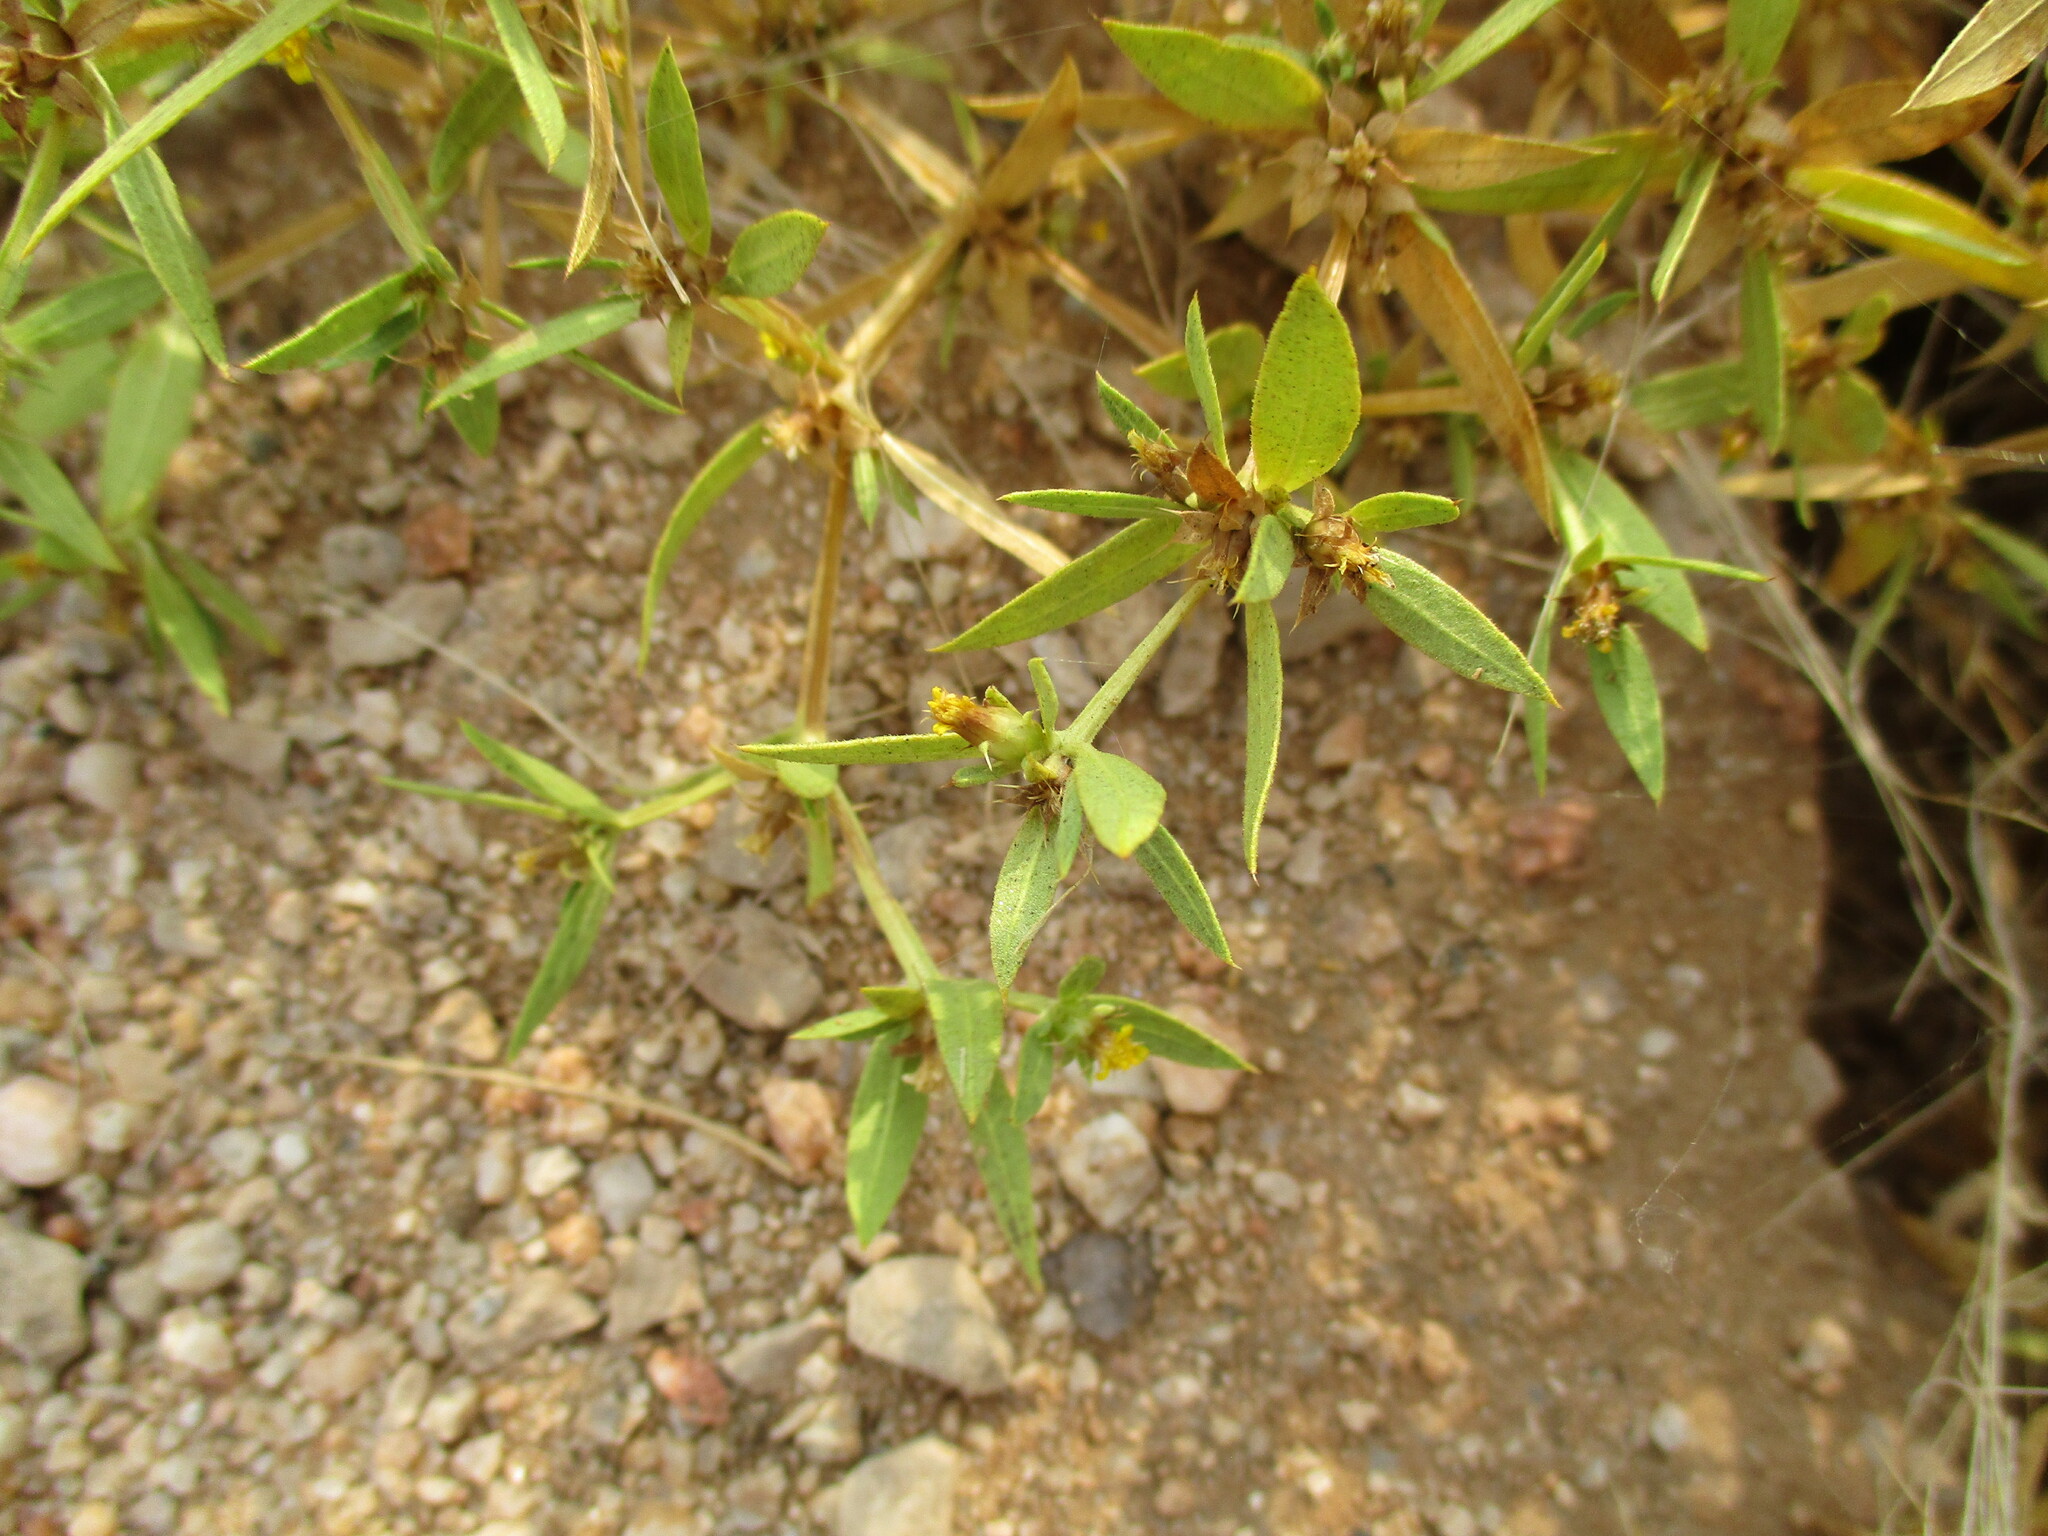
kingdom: Plantae
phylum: Tracheophyta
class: Magnoliopsida
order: Asterales
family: Asteraceae
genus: Geigeria
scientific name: Geigeria alata
